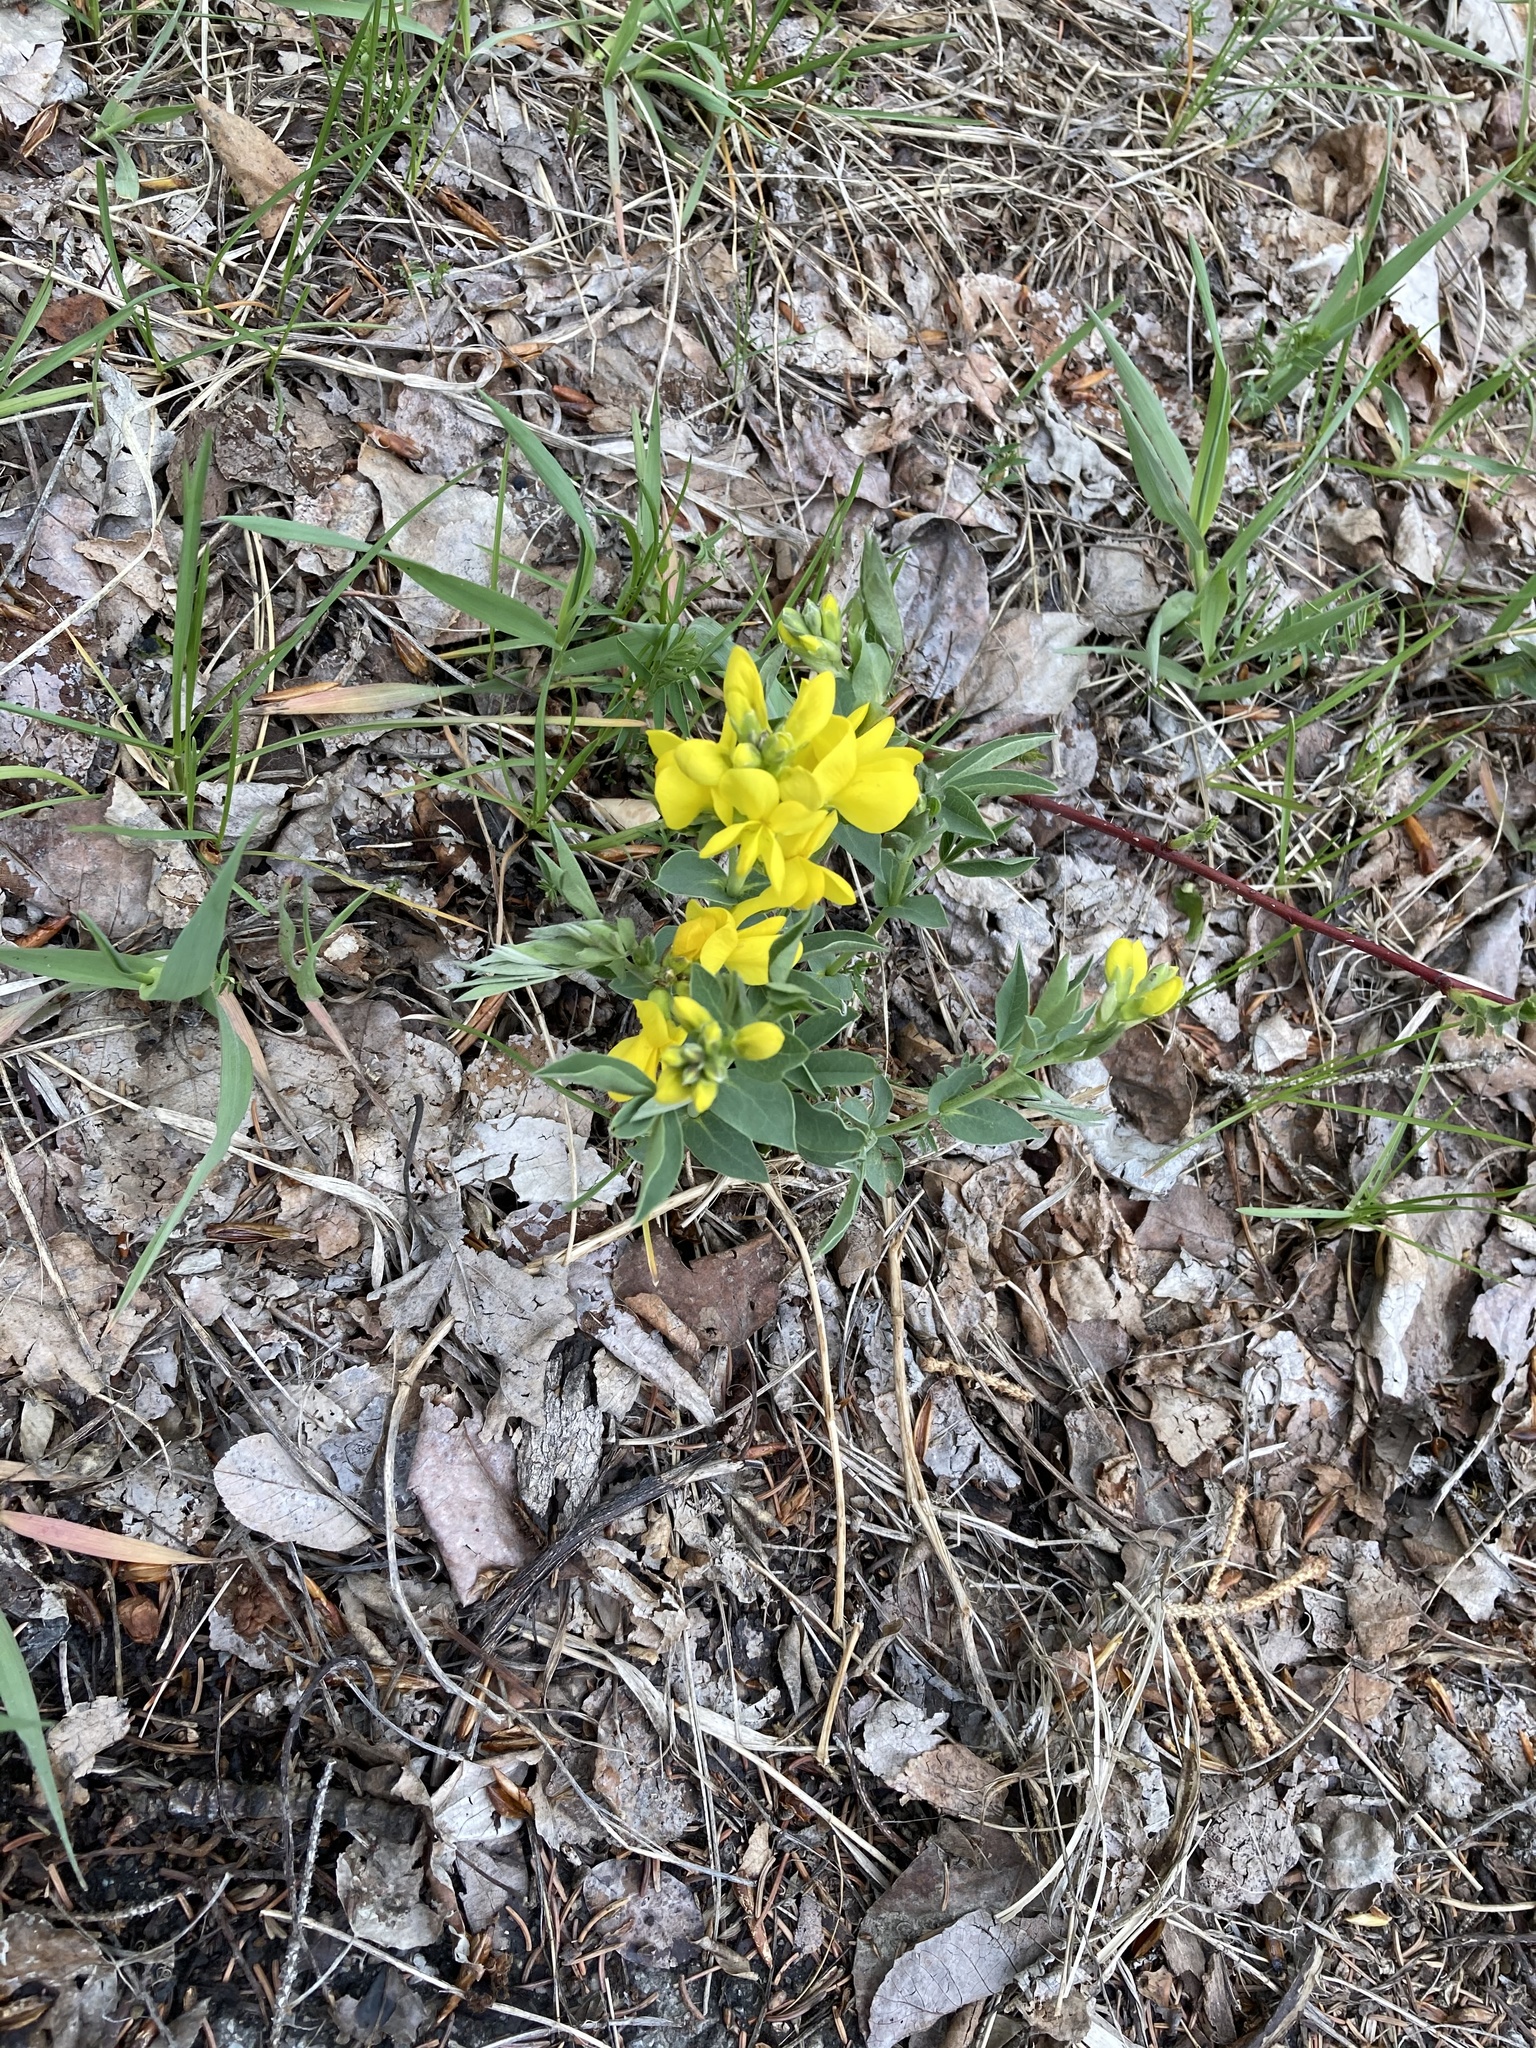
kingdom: Plantae
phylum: Tracheophyta
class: Magnoliopsida
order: Fabales
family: Fabaceae
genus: Thermopsis
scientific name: Thermopsis rhombifolia
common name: Circle-pod-pea
